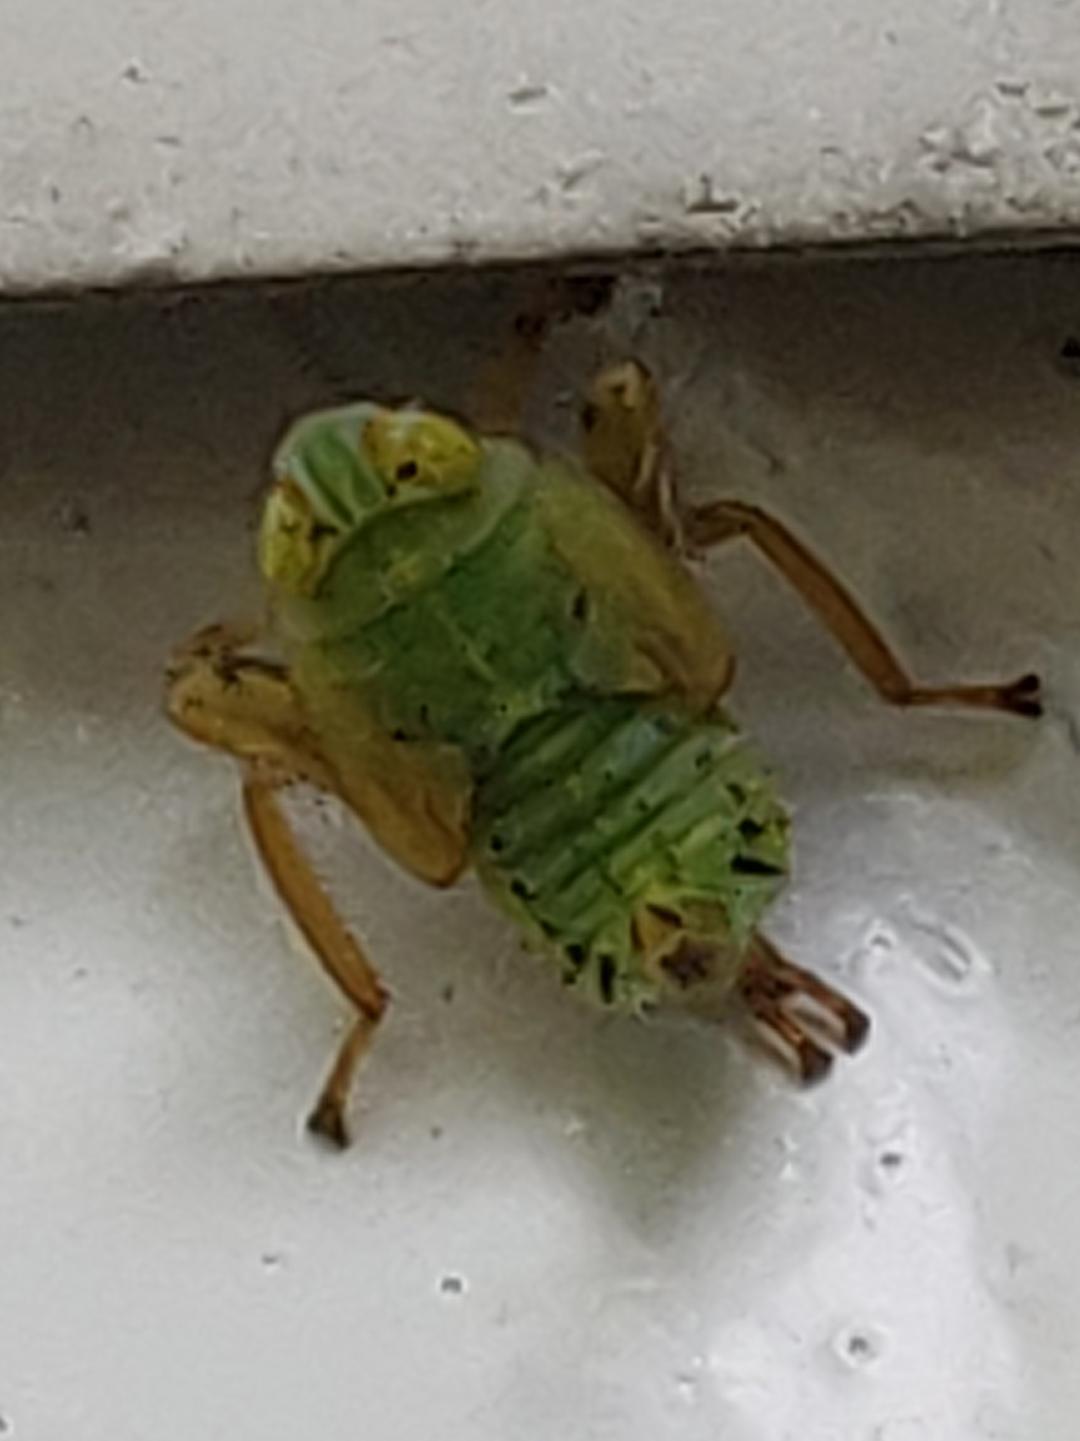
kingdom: Animalia
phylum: Arthropoda
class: Insecta
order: Hemiptera
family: Cicadellidae
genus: Jikradia
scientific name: Jikradia olitoria
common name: Coppery leafhopper
